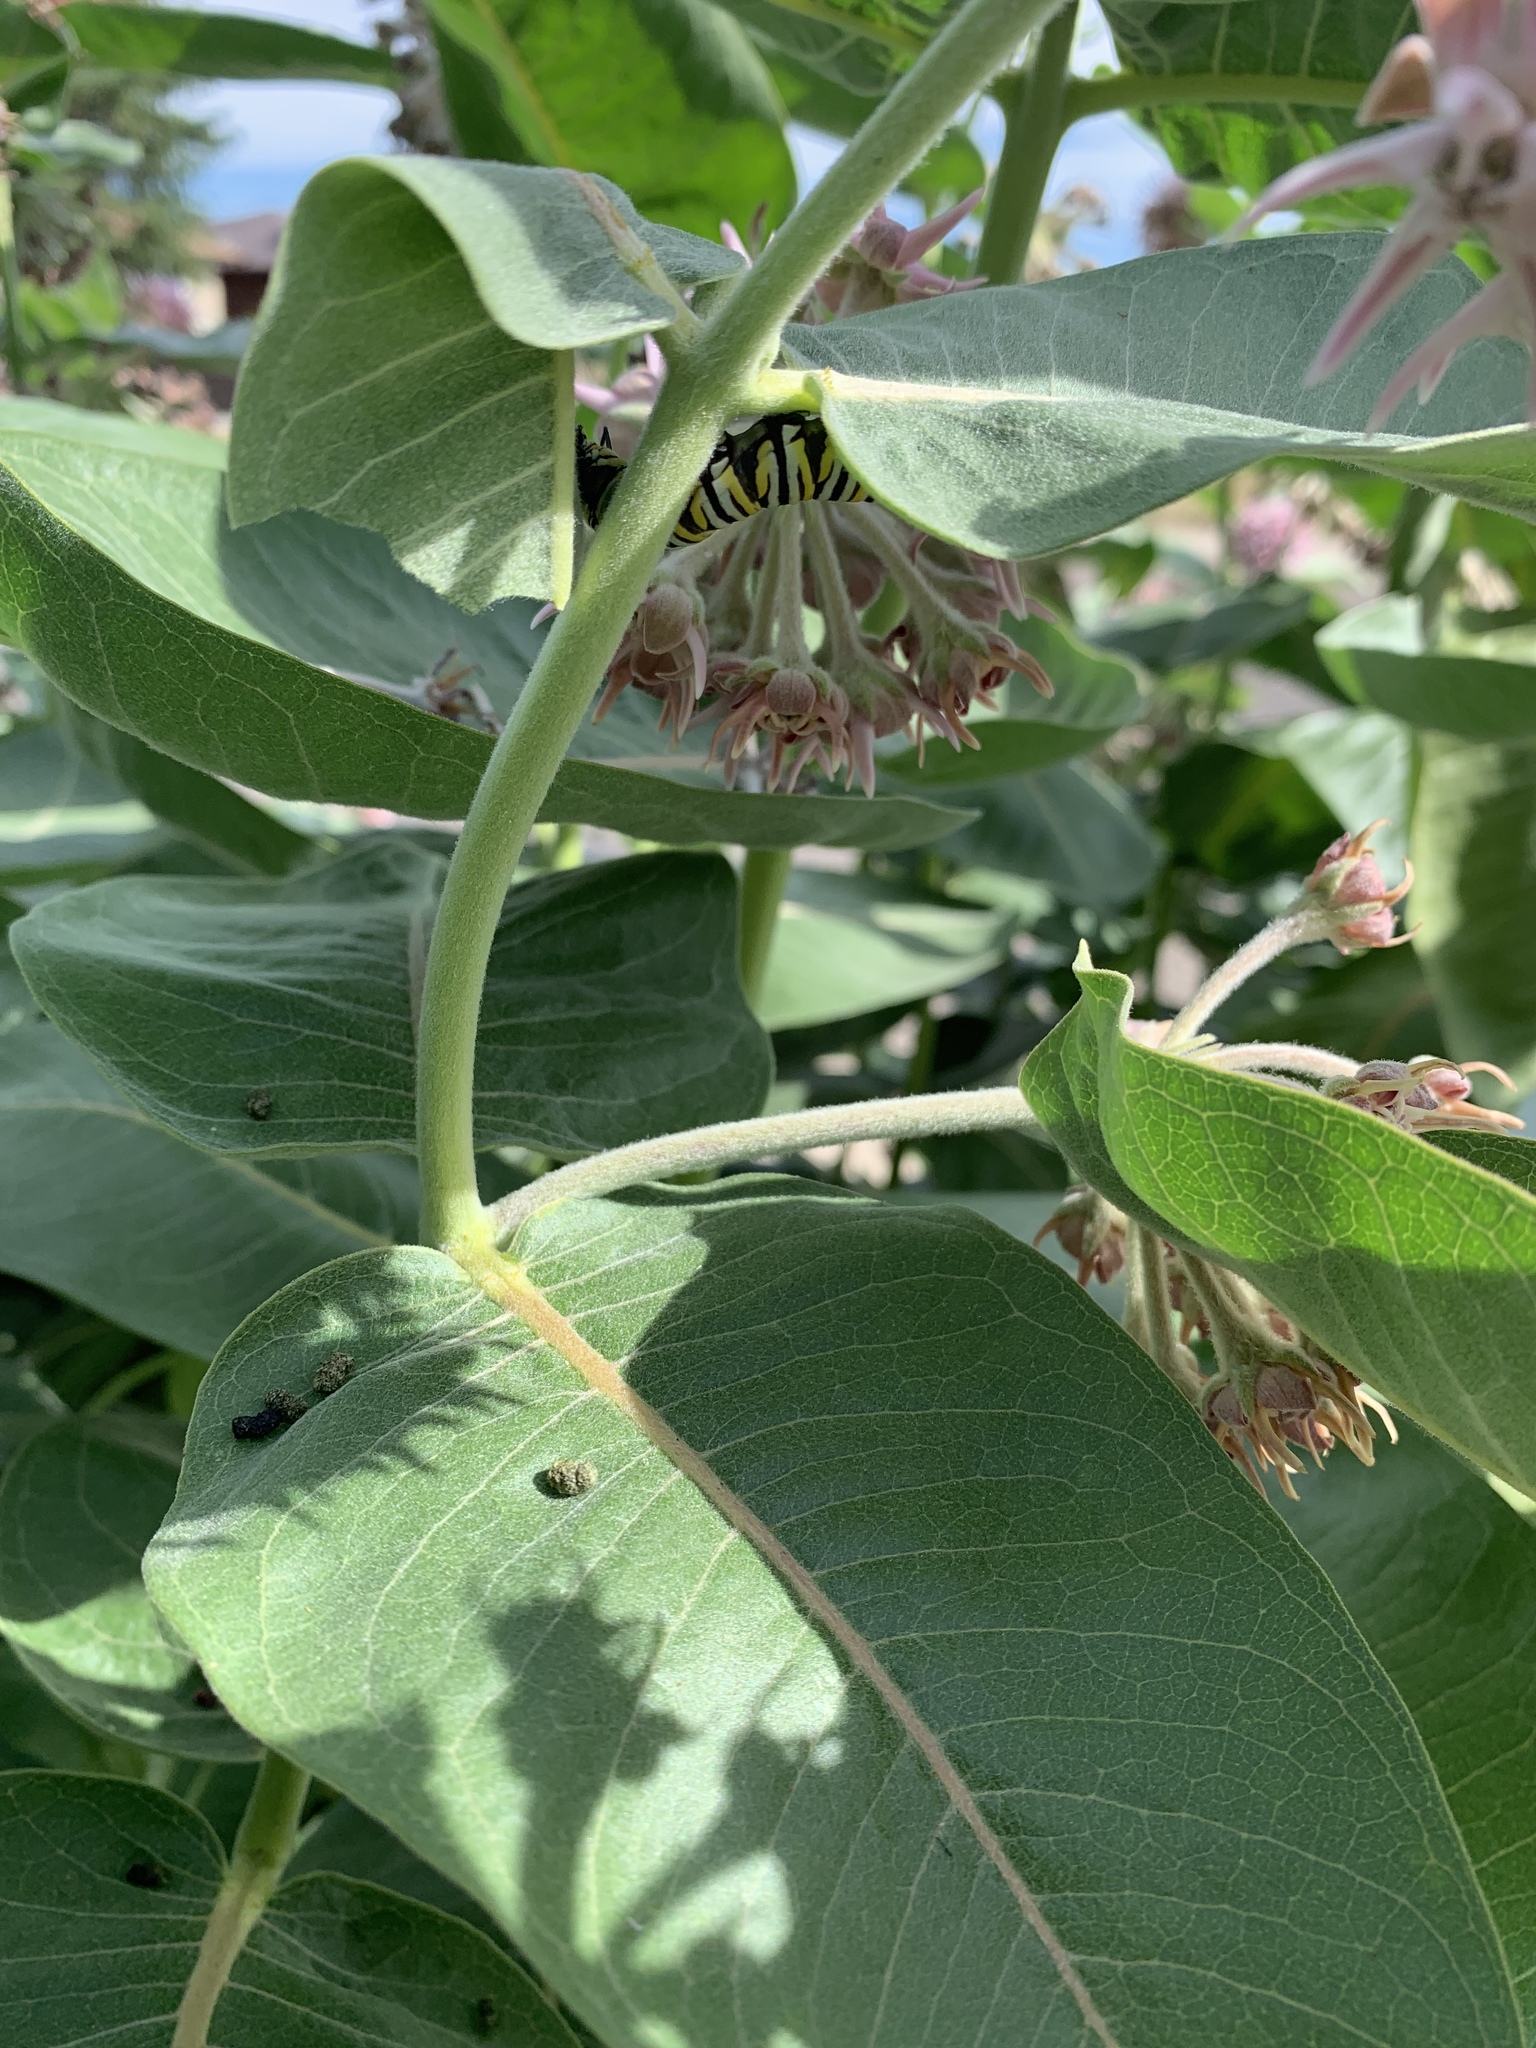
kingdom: Animalia
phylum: Arthropoda
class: Insecta
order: Lepidoptera
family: Nymphalidae
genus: Danaus
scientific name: Danaus plexippus
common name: Monarch
